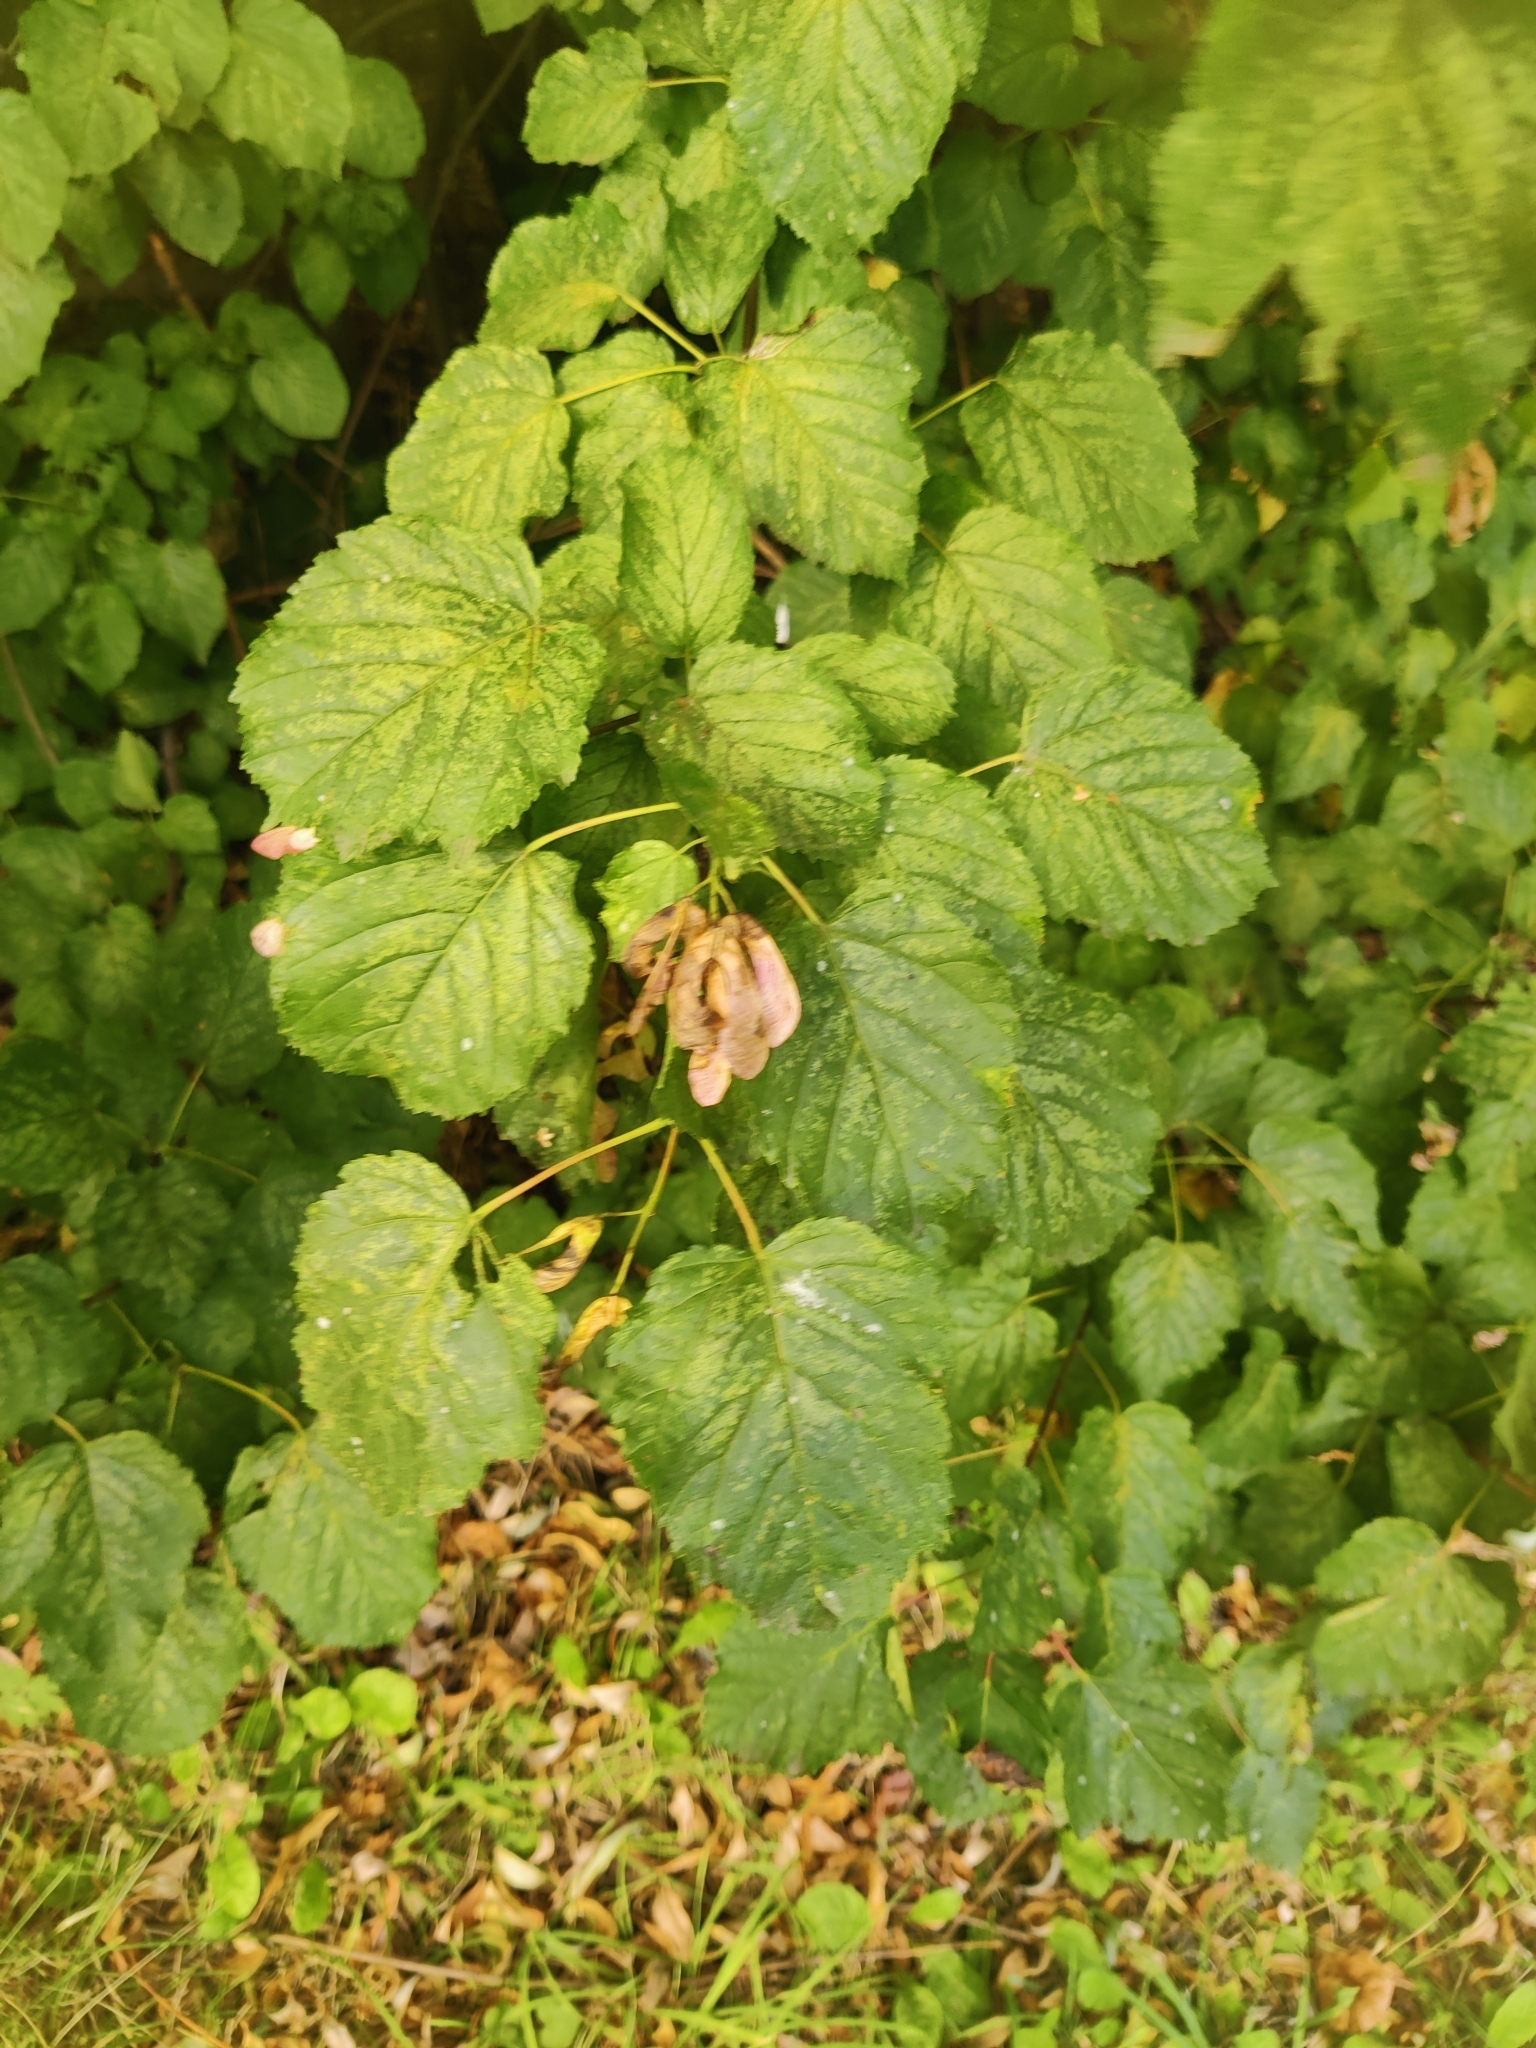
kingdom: Plantae
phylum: Tracheophyta
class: Magnoliopsida
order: Sapindales
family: Sapindaceae
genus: Acer
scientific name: Acer tataricum
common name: Tartar maple
